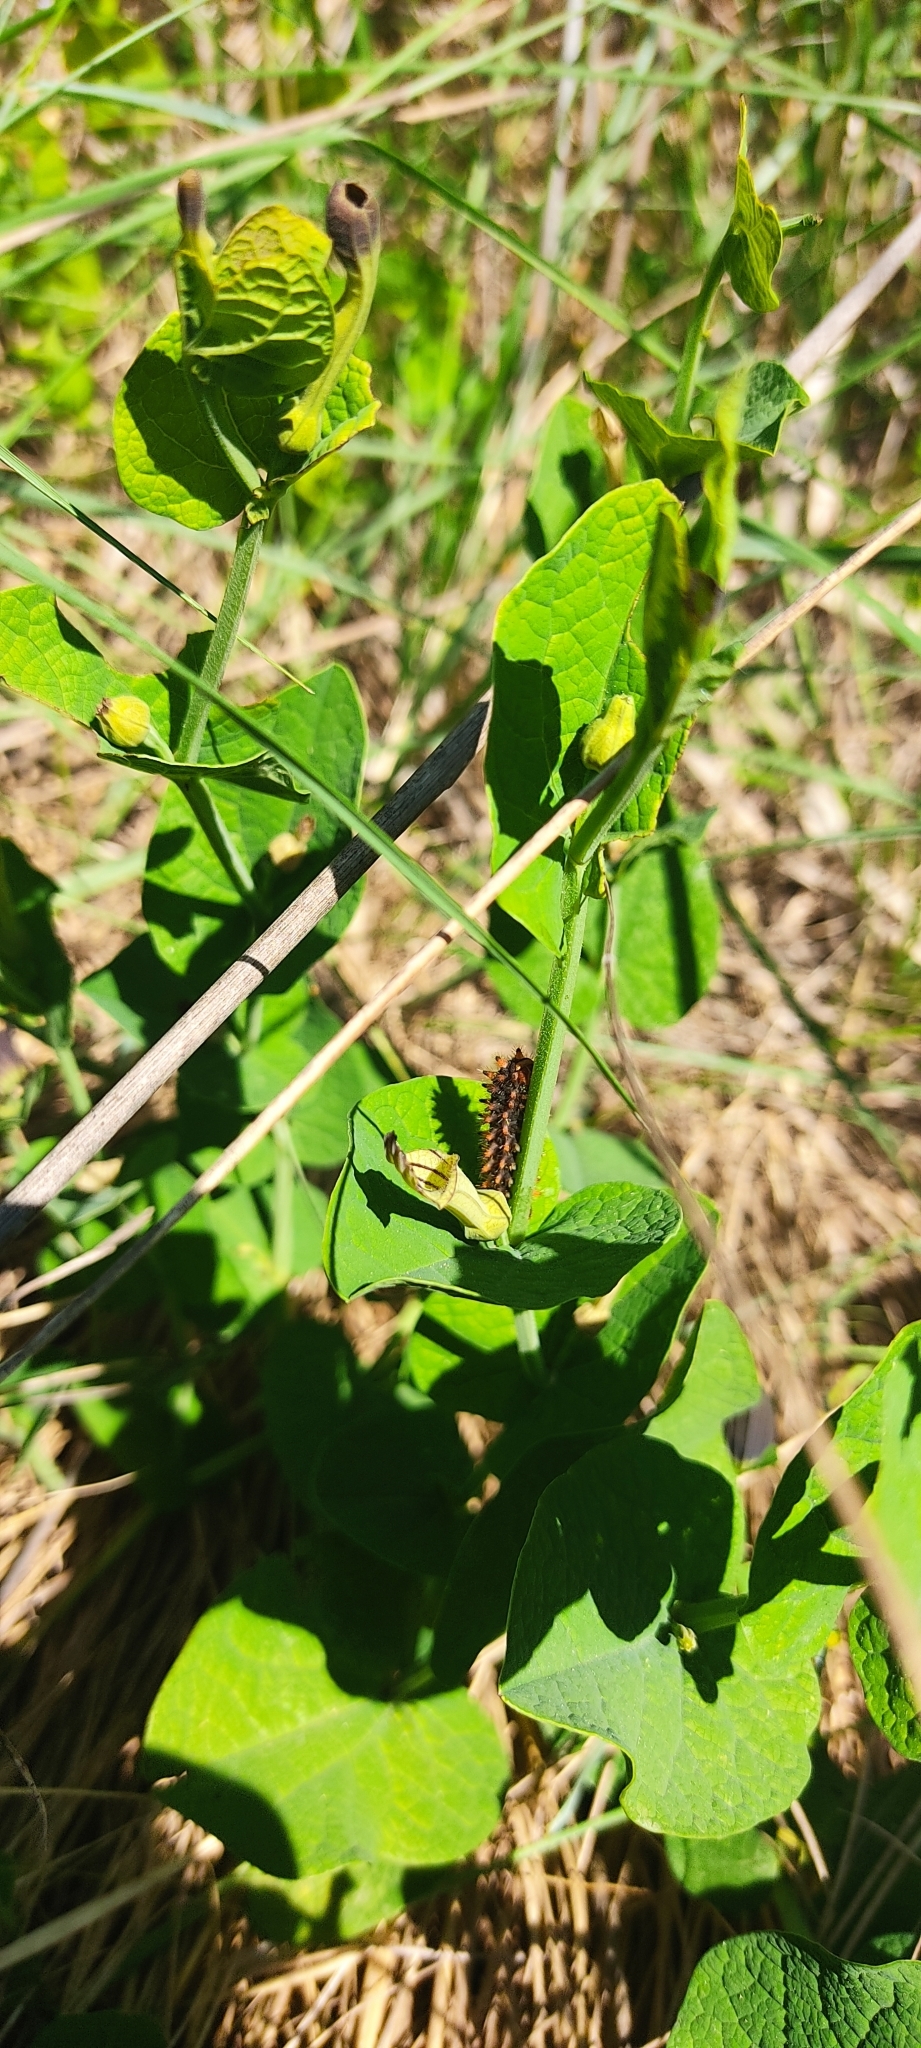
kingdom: Animalia
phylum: Arthropoda
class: Insecta
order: Lepidoptera
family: Papilionidae
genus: Zerynthia
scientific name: Zerynthia polyxena
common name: Southern festoon
